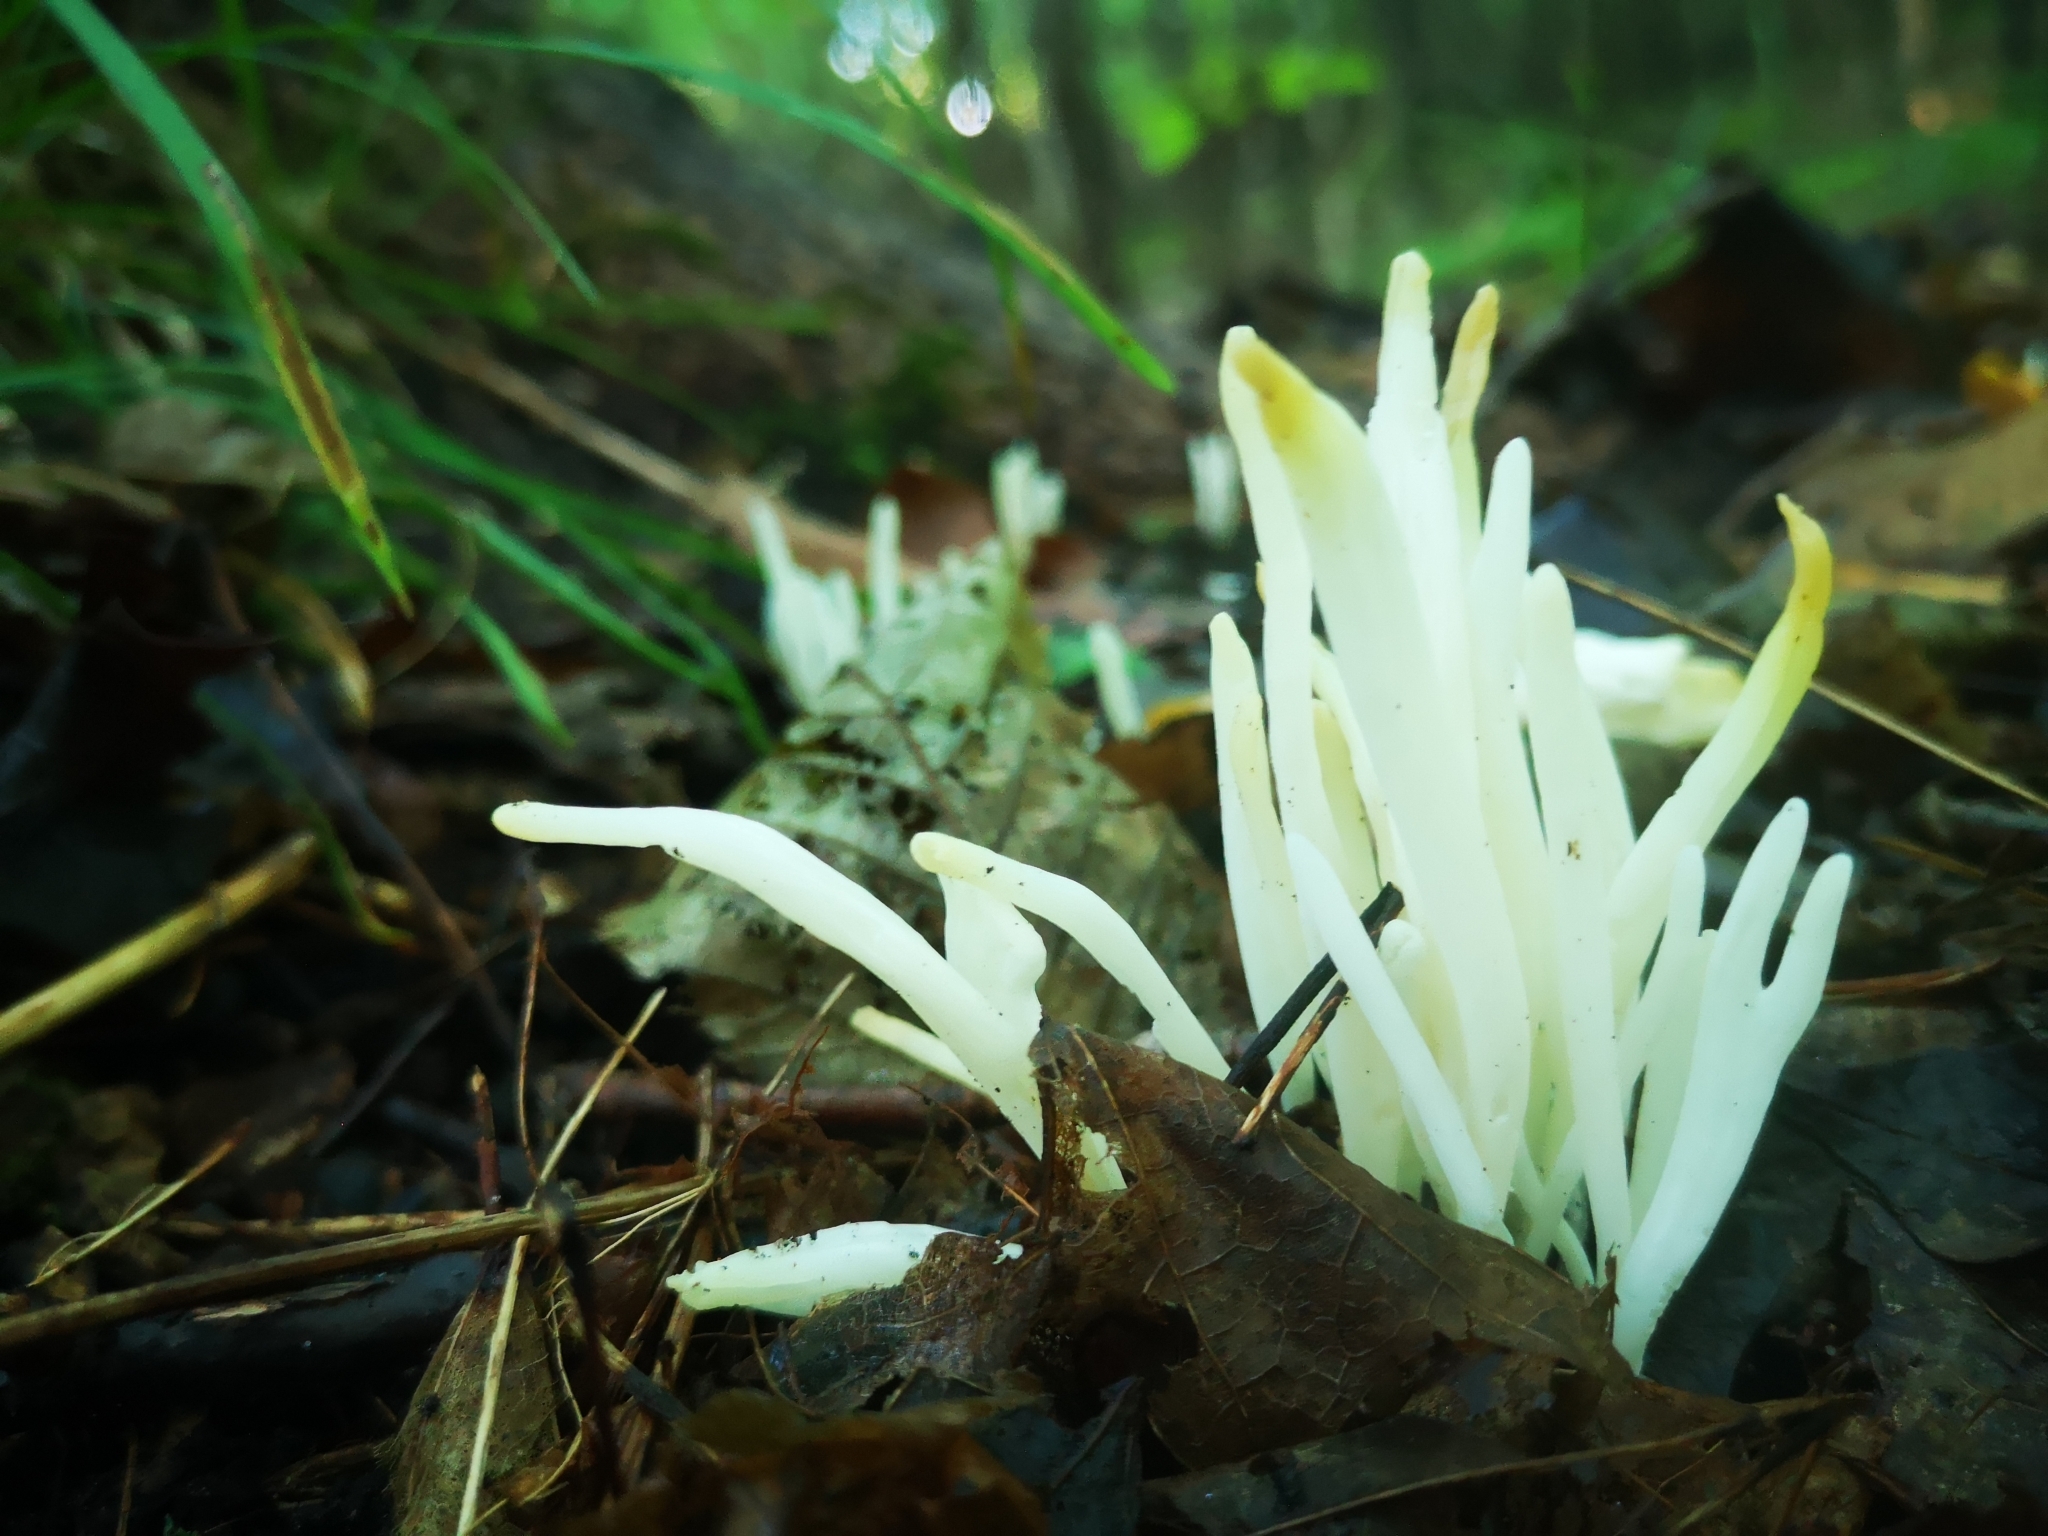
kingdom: Fungi
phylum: Basidiomycota
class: Agaricomycetes
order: Agaricales
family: Clavariaceae
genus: Clavaria
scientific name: Clavaria fragilis
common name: White spindles
